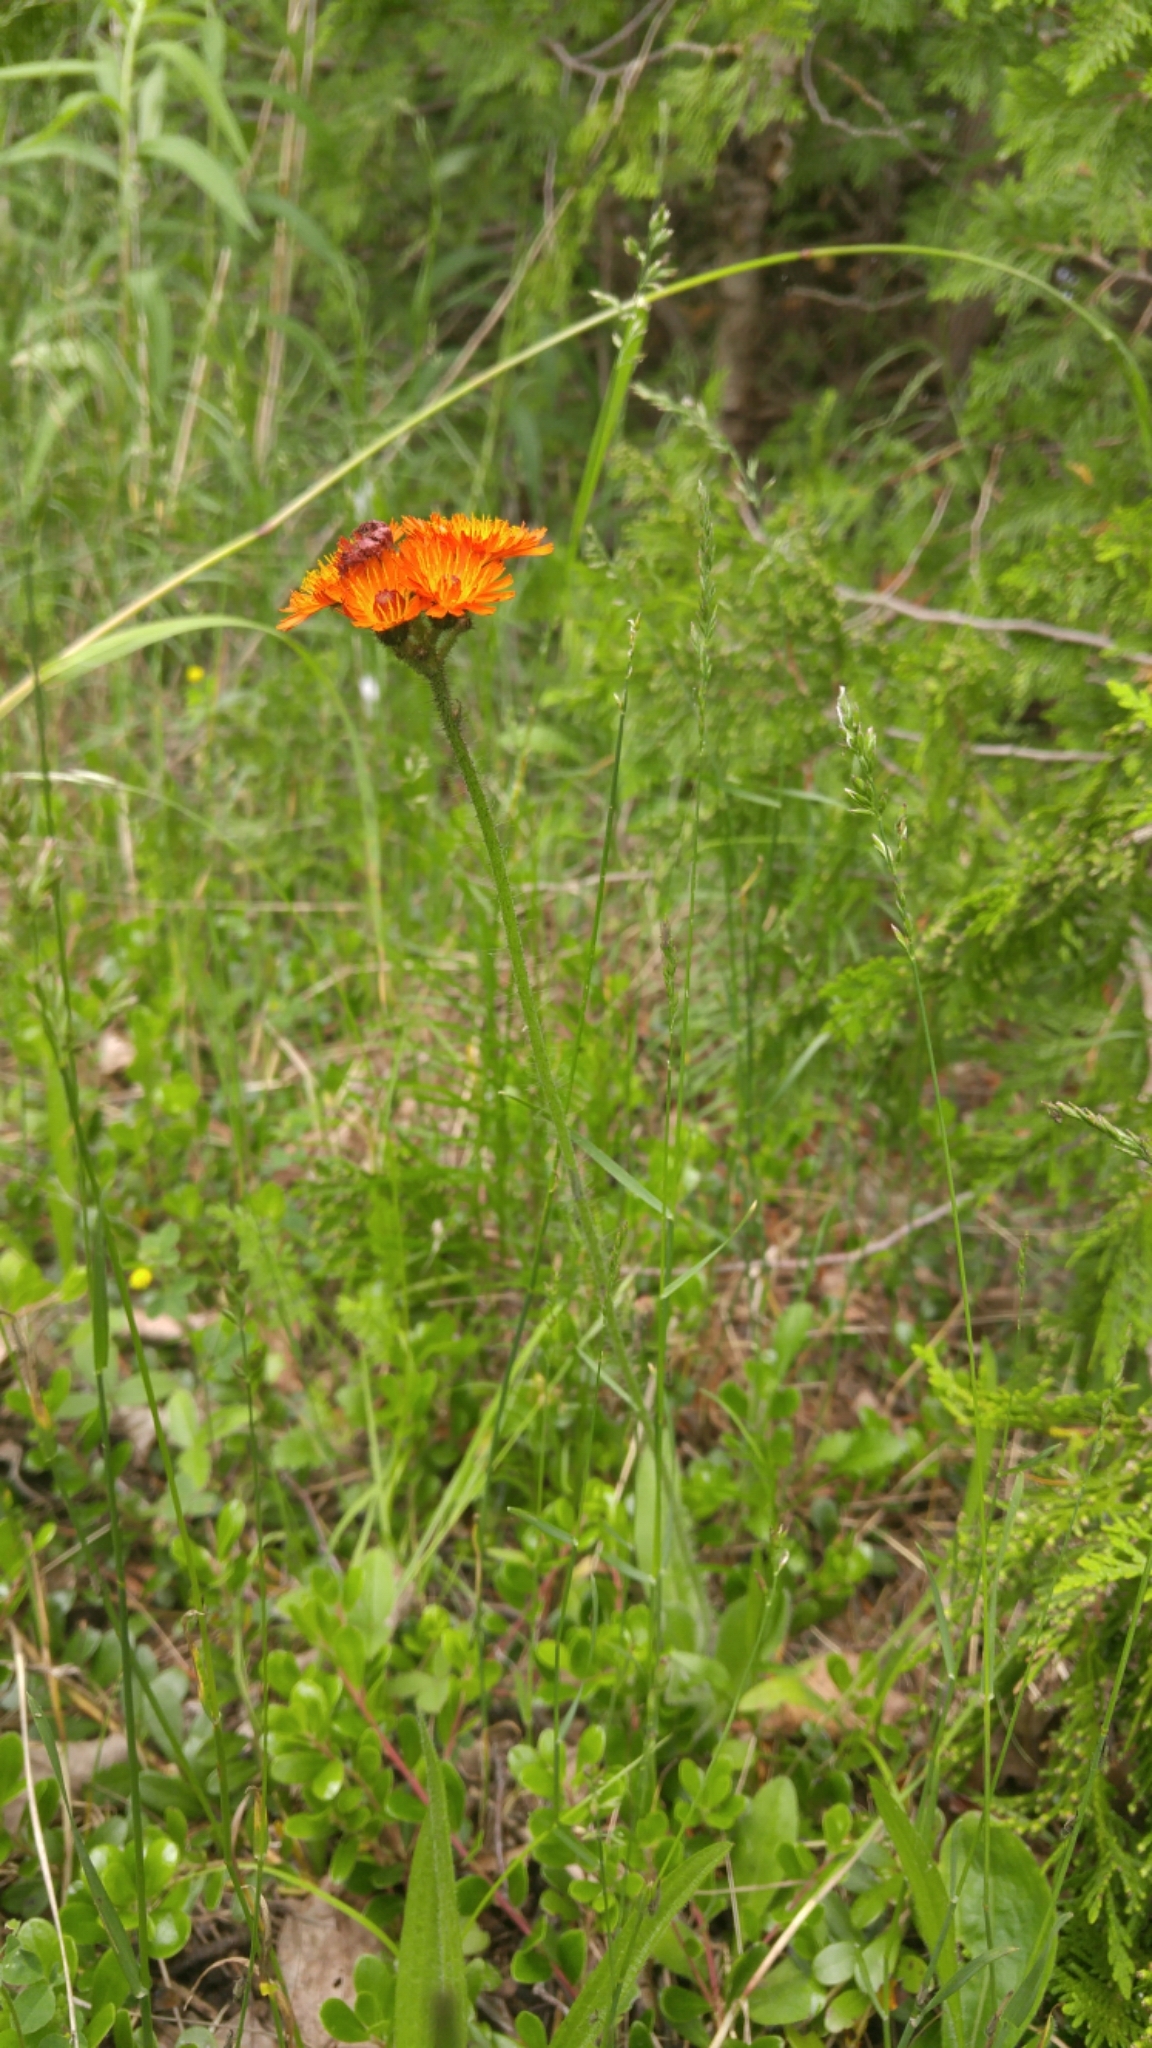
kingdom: Plantae
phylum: Tracheophyta
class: Magnoliopsida
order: Asterales
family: Asteraceae
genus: Pilosella
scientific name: Pilosella aurantiaca
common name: Fox-and-cubs
